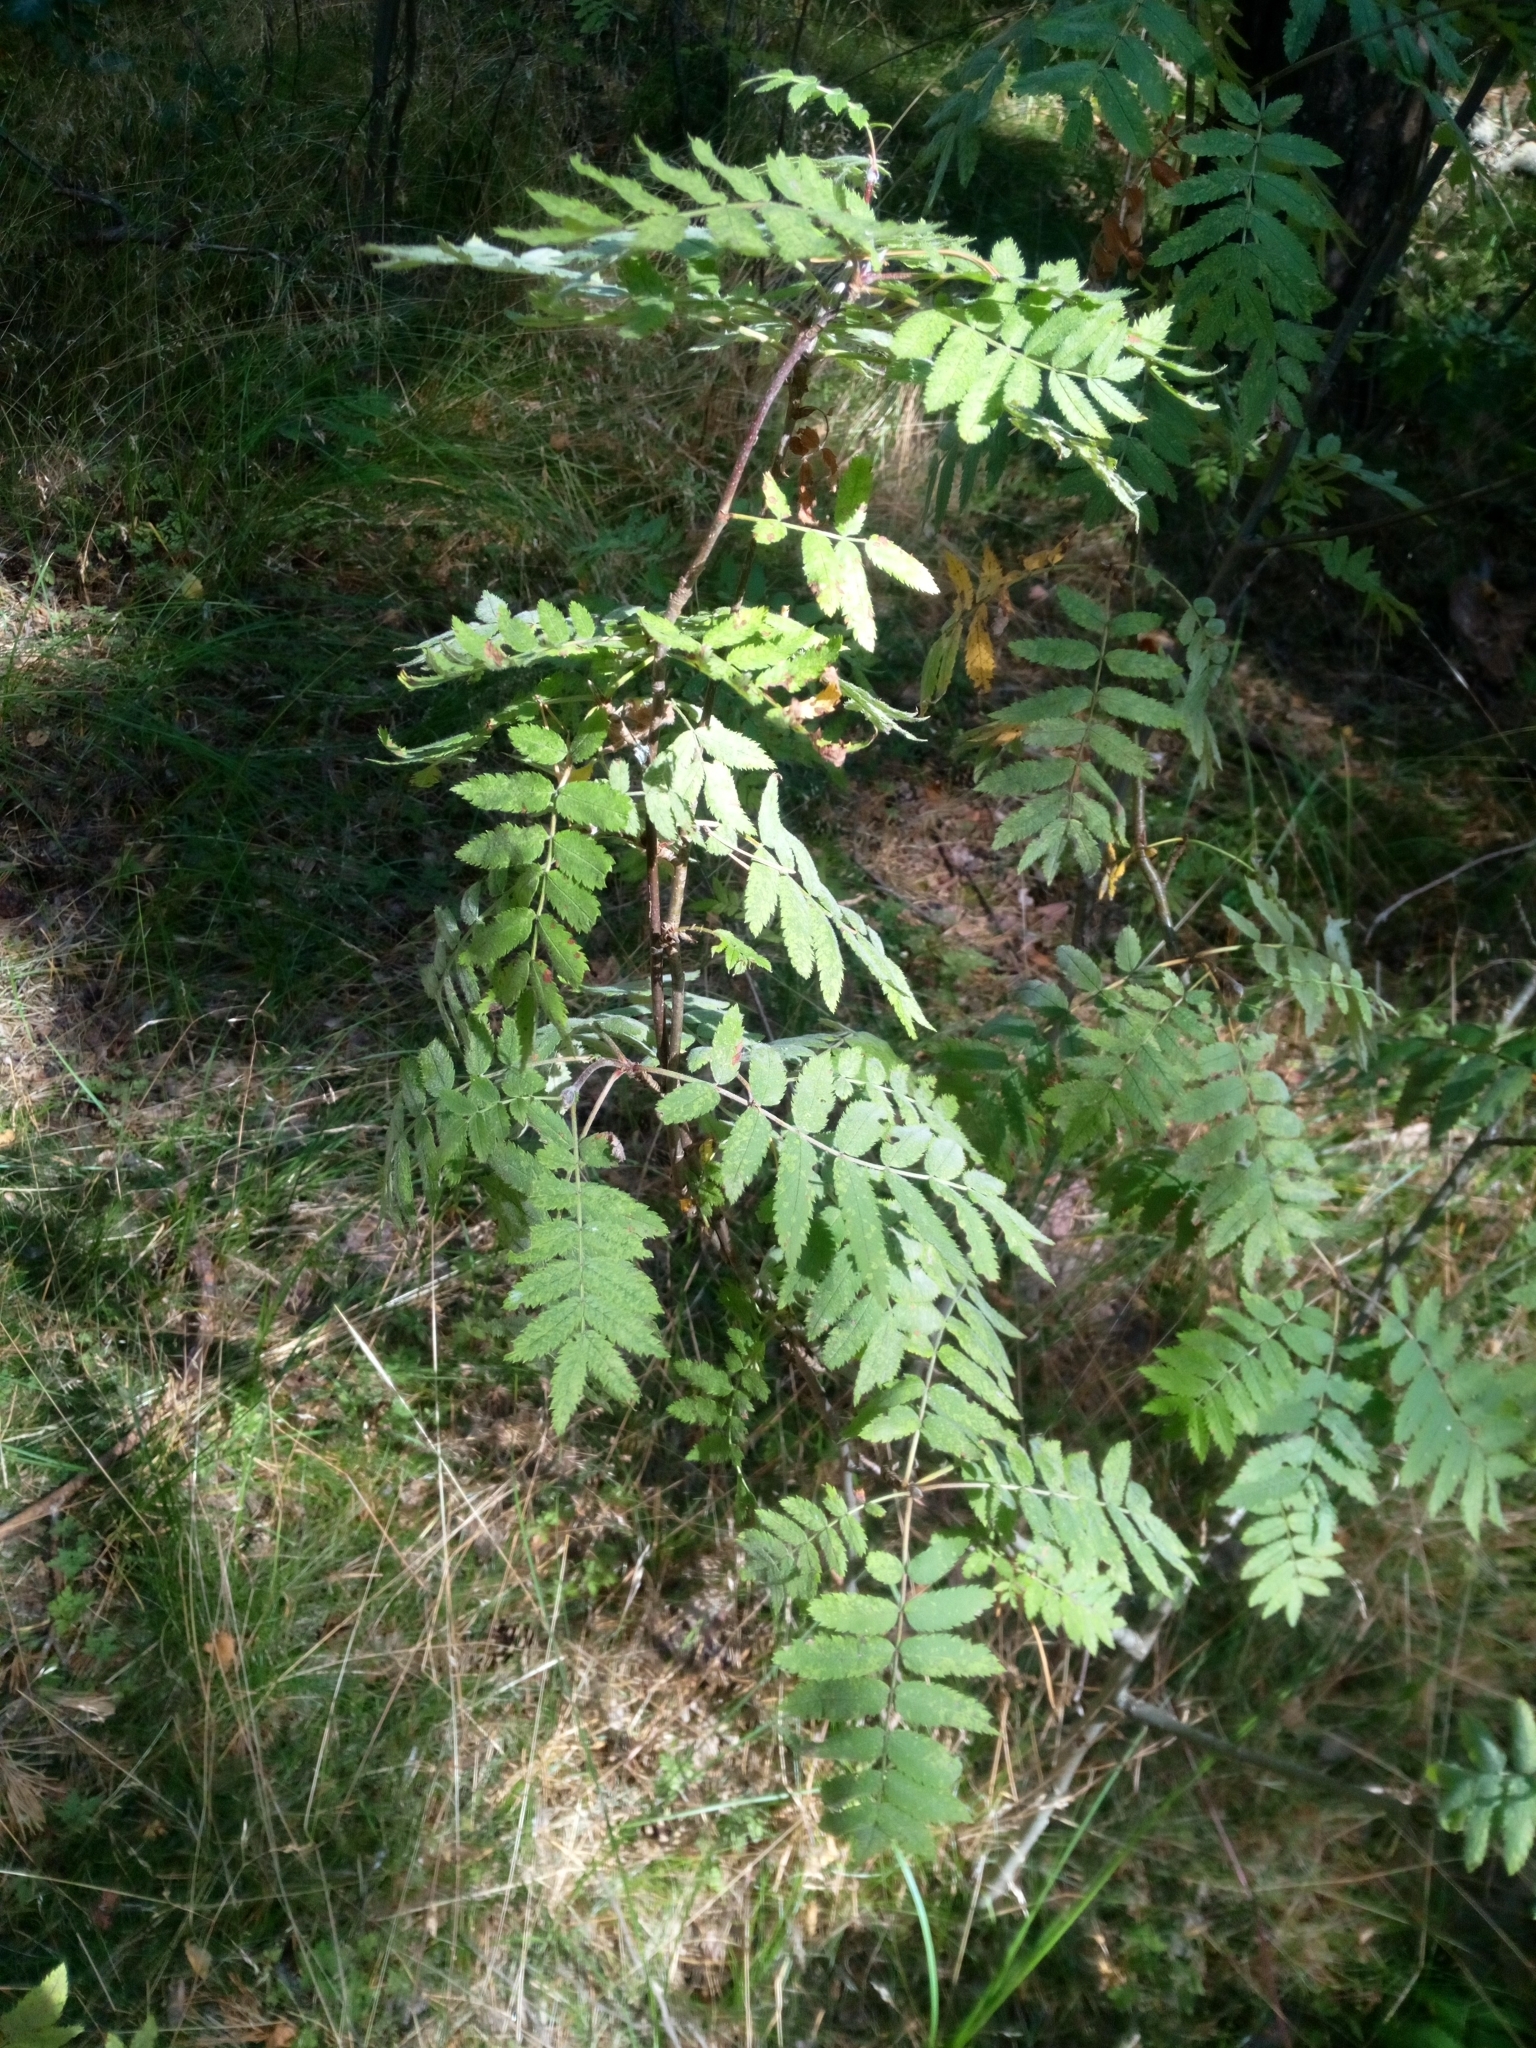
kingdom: Plantae
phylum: Tracheophyta
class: Magnoliopsida
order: Rosales
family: Rosaceae
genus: Sorbus
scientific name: Sorbus aucuparia
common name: Rowan
